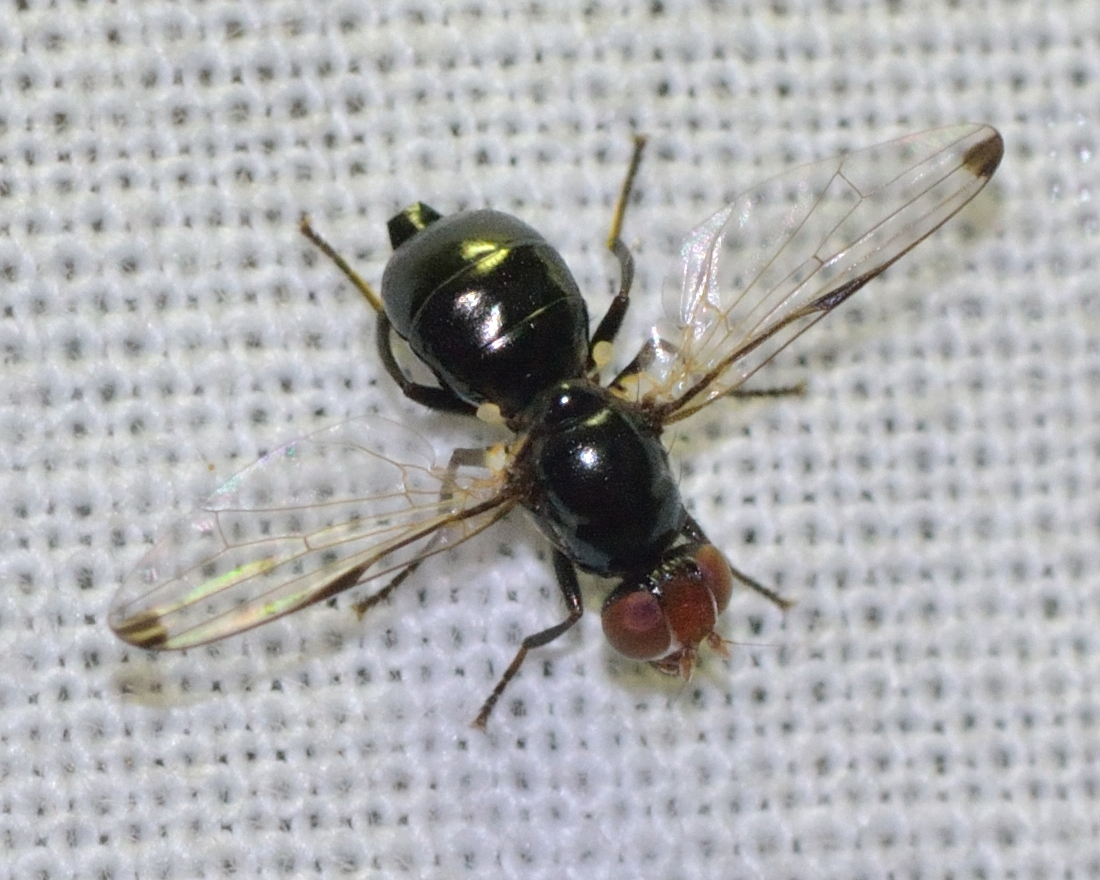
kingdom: Animalia
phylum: Arthropoda
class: Insecta
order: Diptera
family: Ulidiidae
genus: Seioptera
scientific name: Seioptera vibrans
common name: Dark-tipped wingwaver
